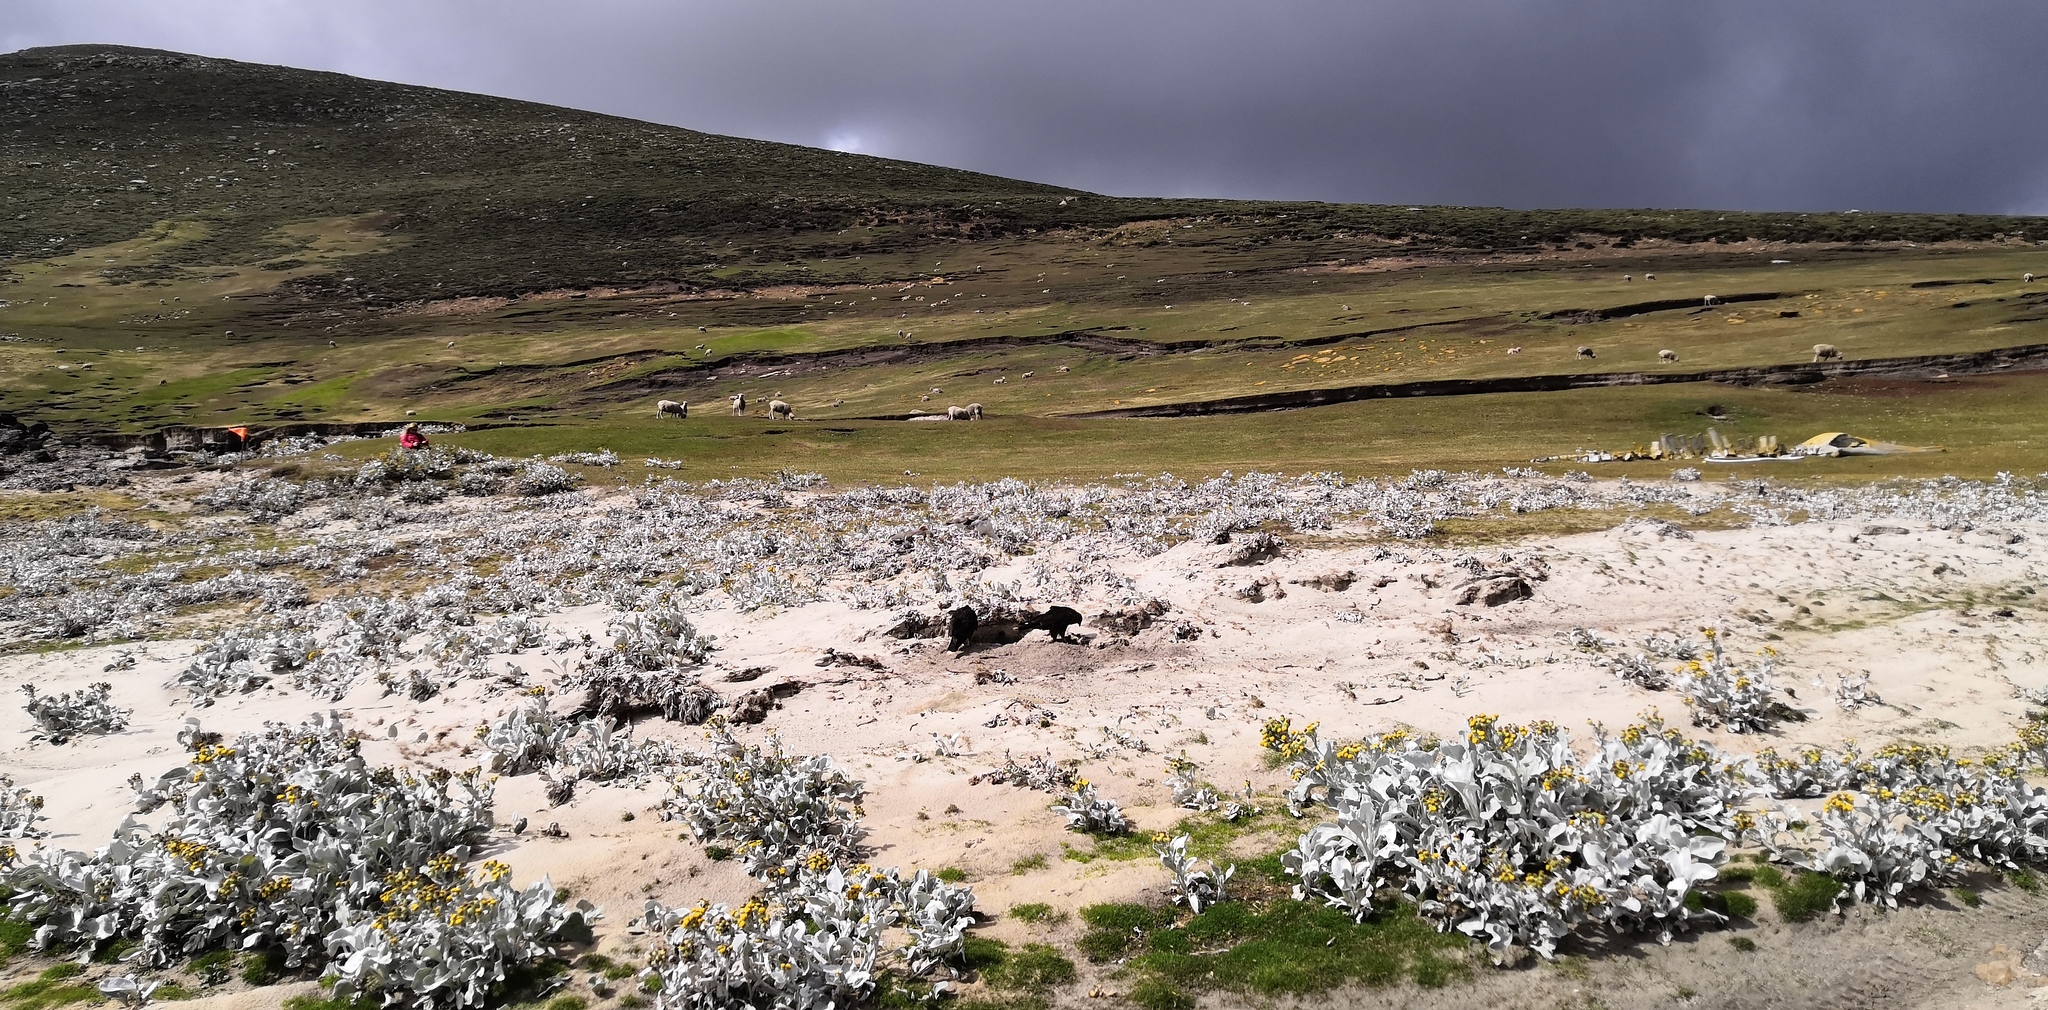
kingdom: Animalia
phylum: Chordata
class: Aves
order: Falconiformes
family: Falconidae
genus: Daptrius
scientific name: Daptrius
